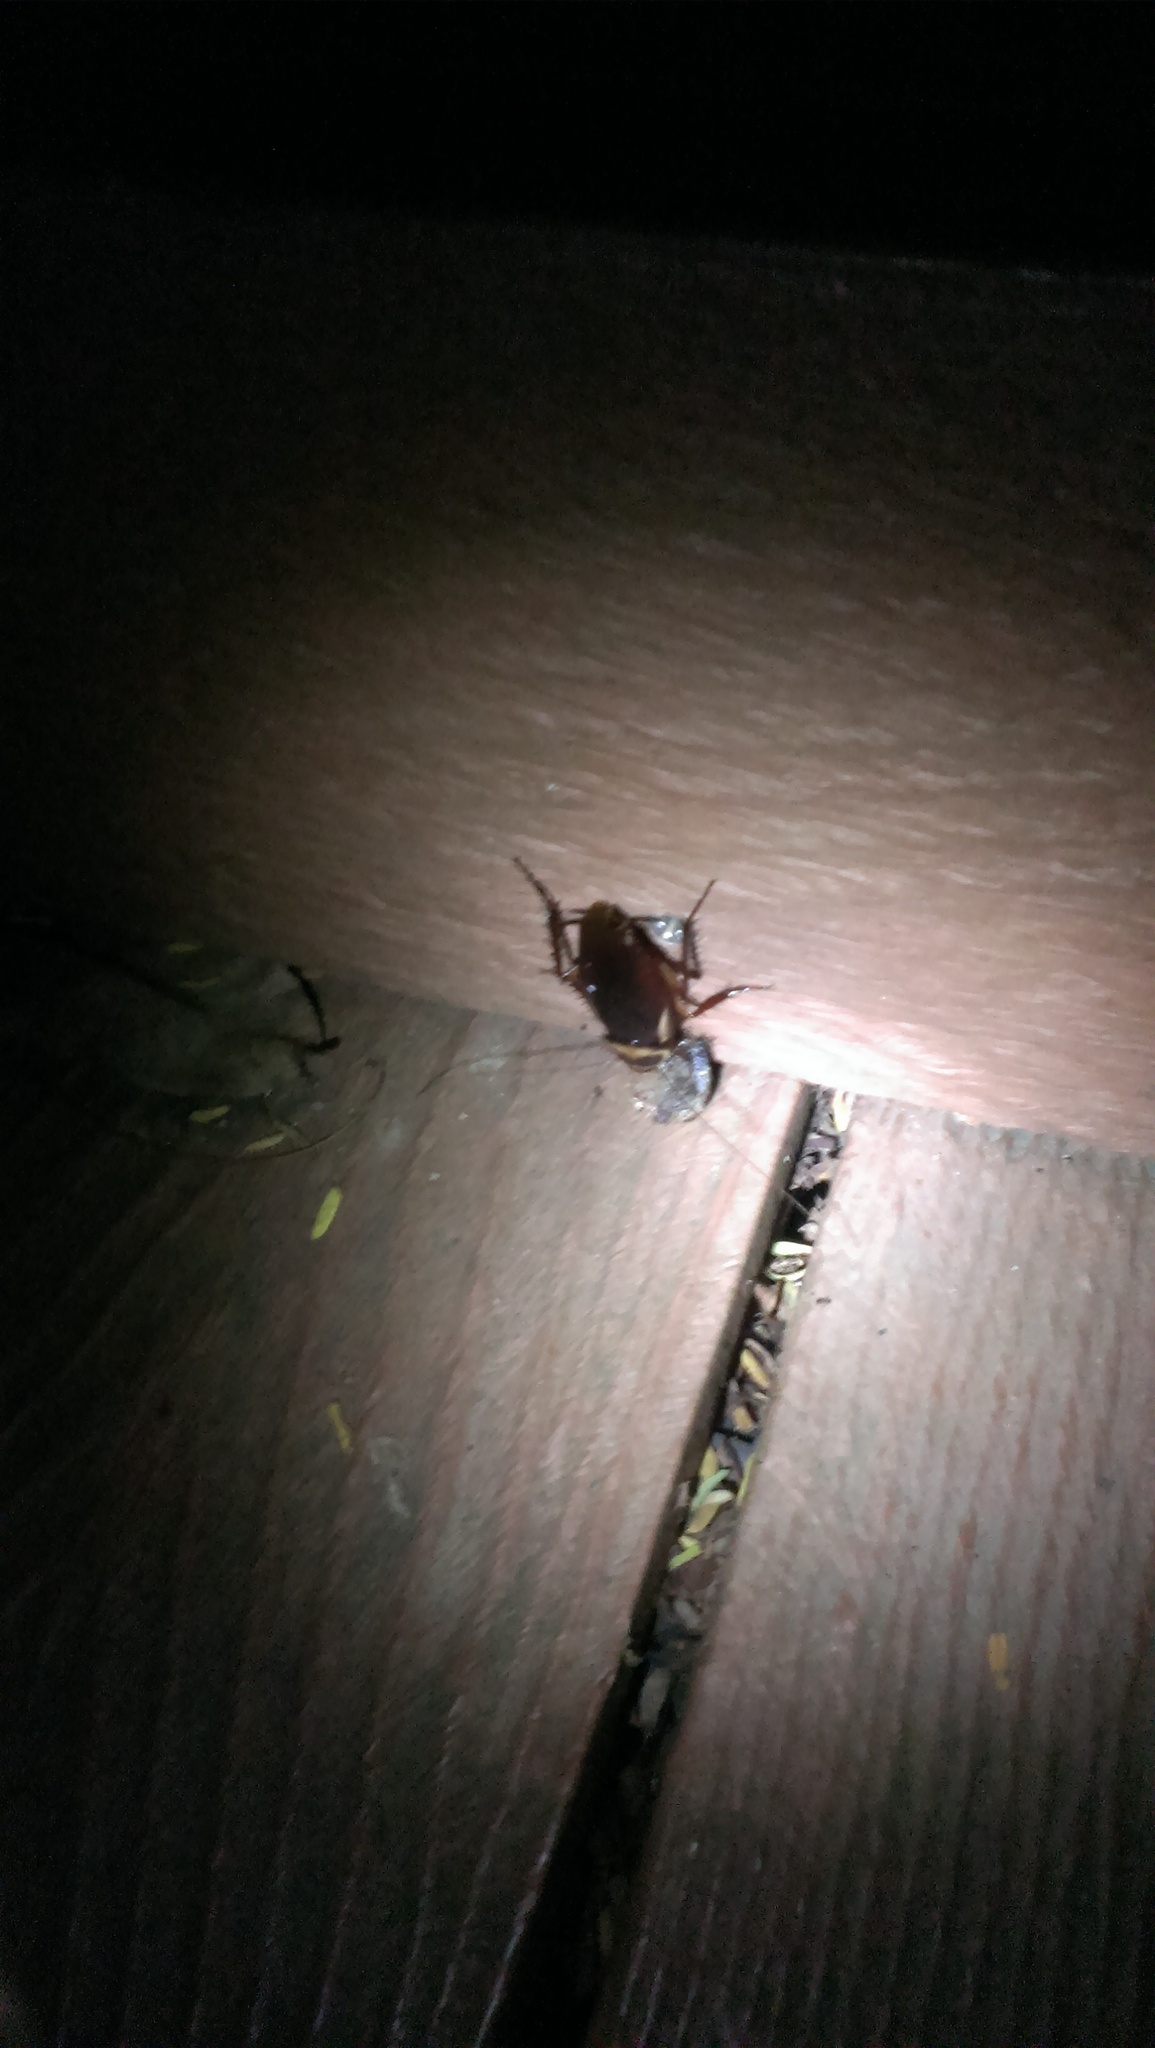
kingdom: Animalia
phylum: Arthropoda
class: Insecta
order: Blattodea
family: Blattidae
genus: Periplaneta
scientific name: Periplaneta australasiae
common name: Australian cockroach
